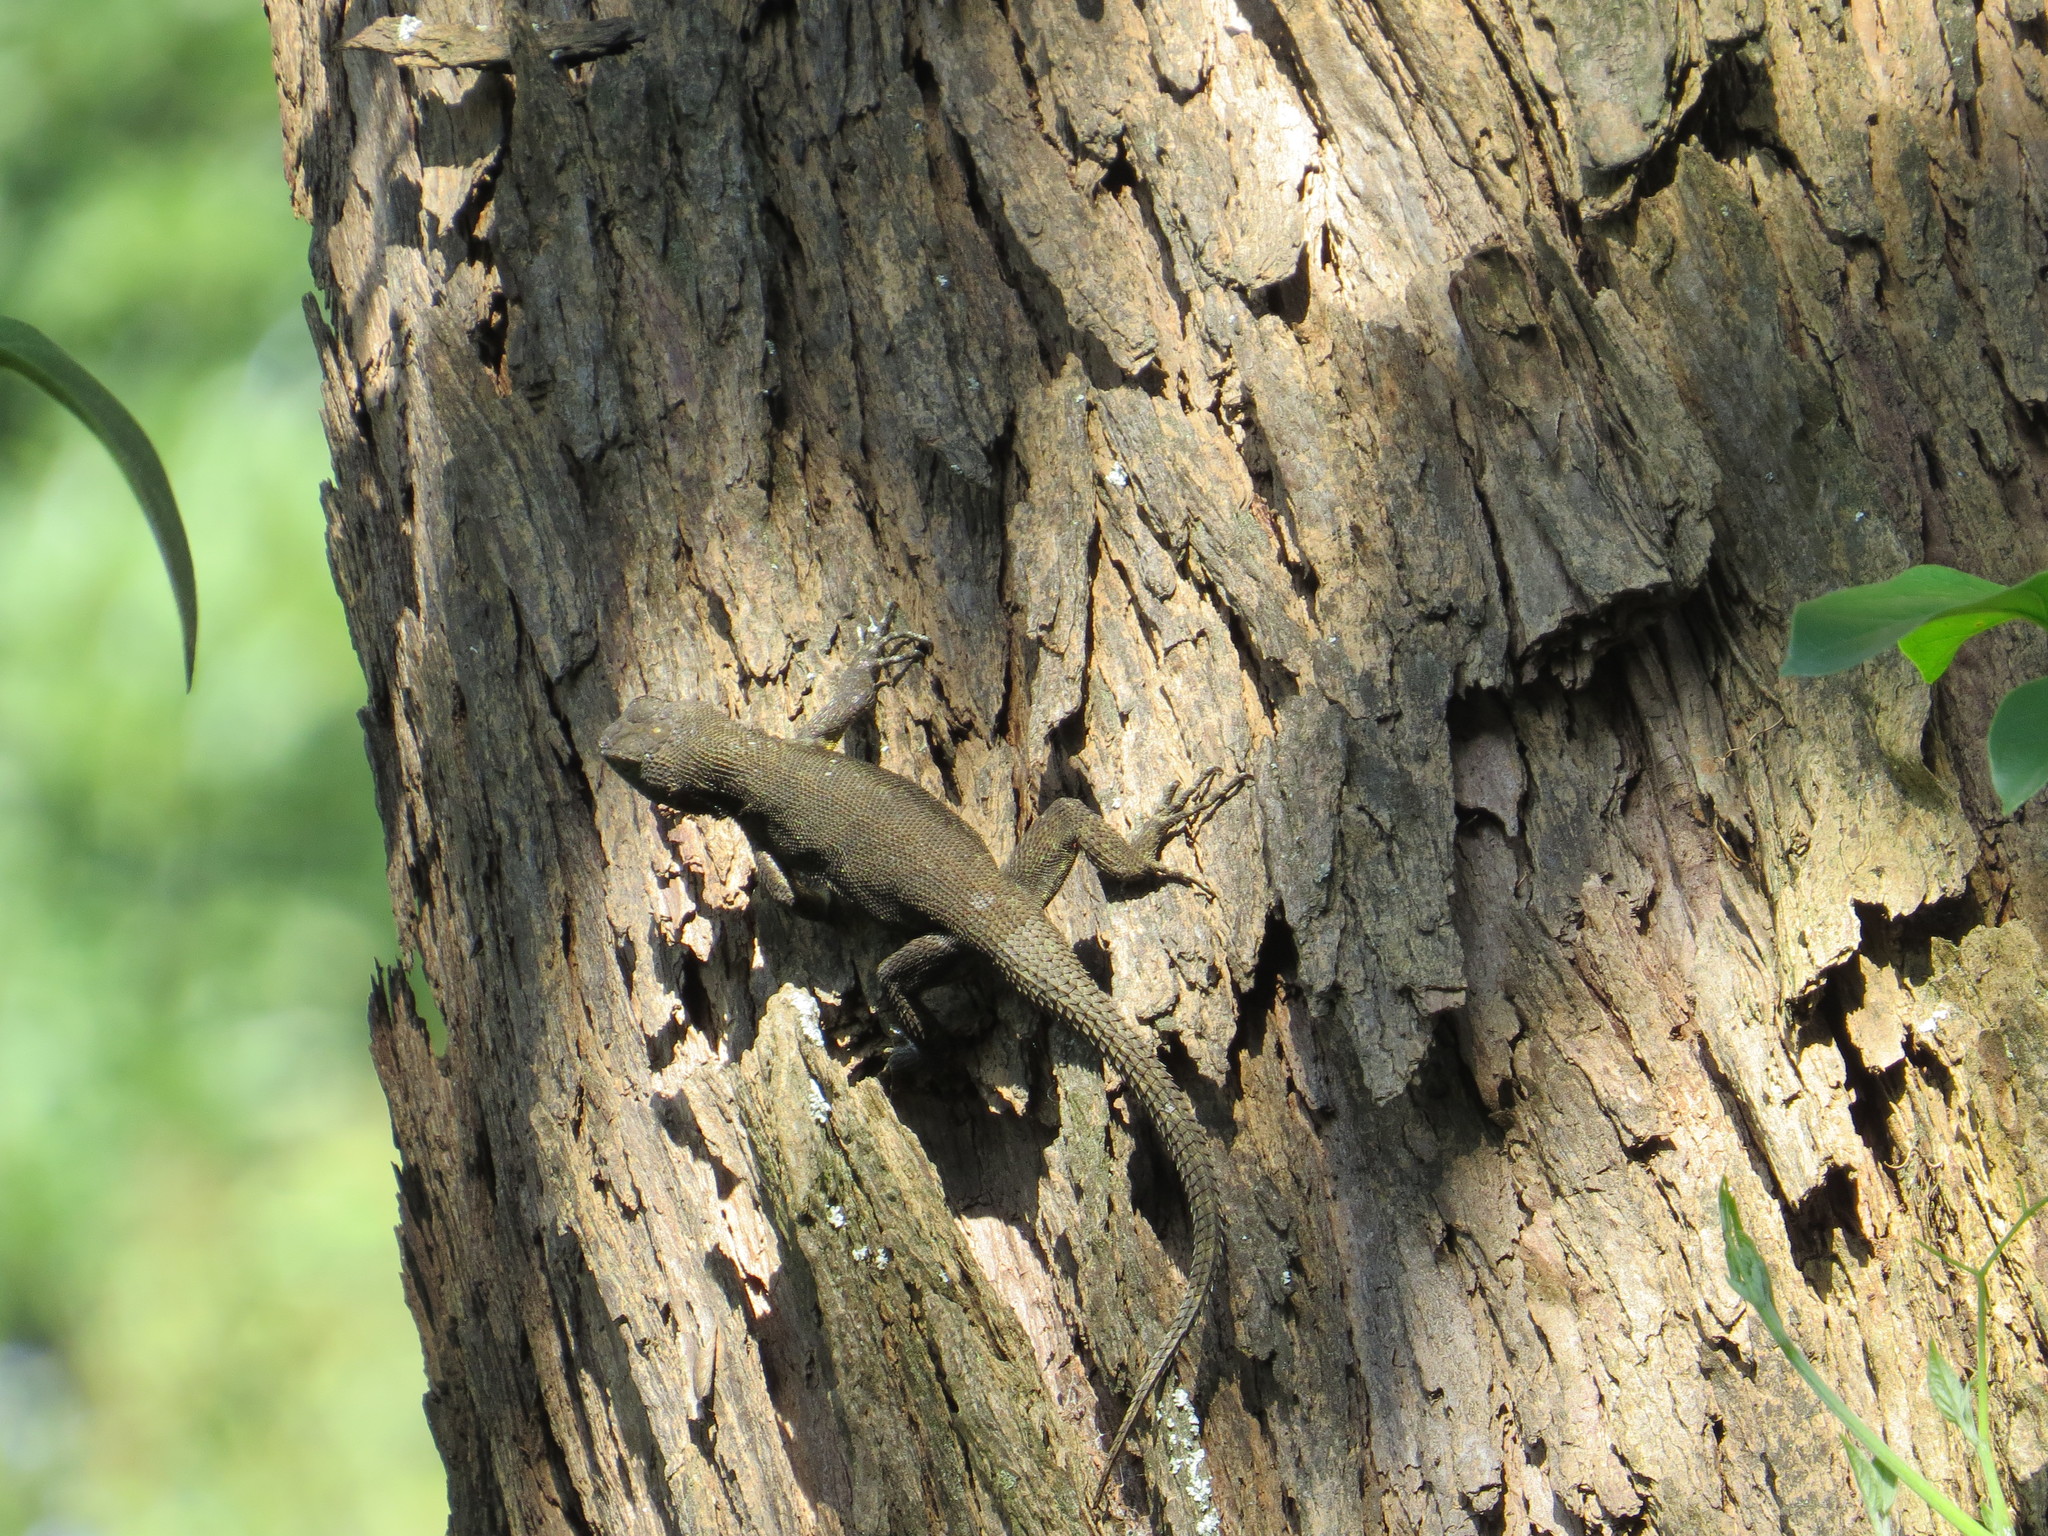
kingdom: Animalia
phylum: Chordata
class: Squamata
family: Phrynosomatidae
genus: Sceloporus
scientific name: Sceloporus grammicus
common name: Mesquite lizard
